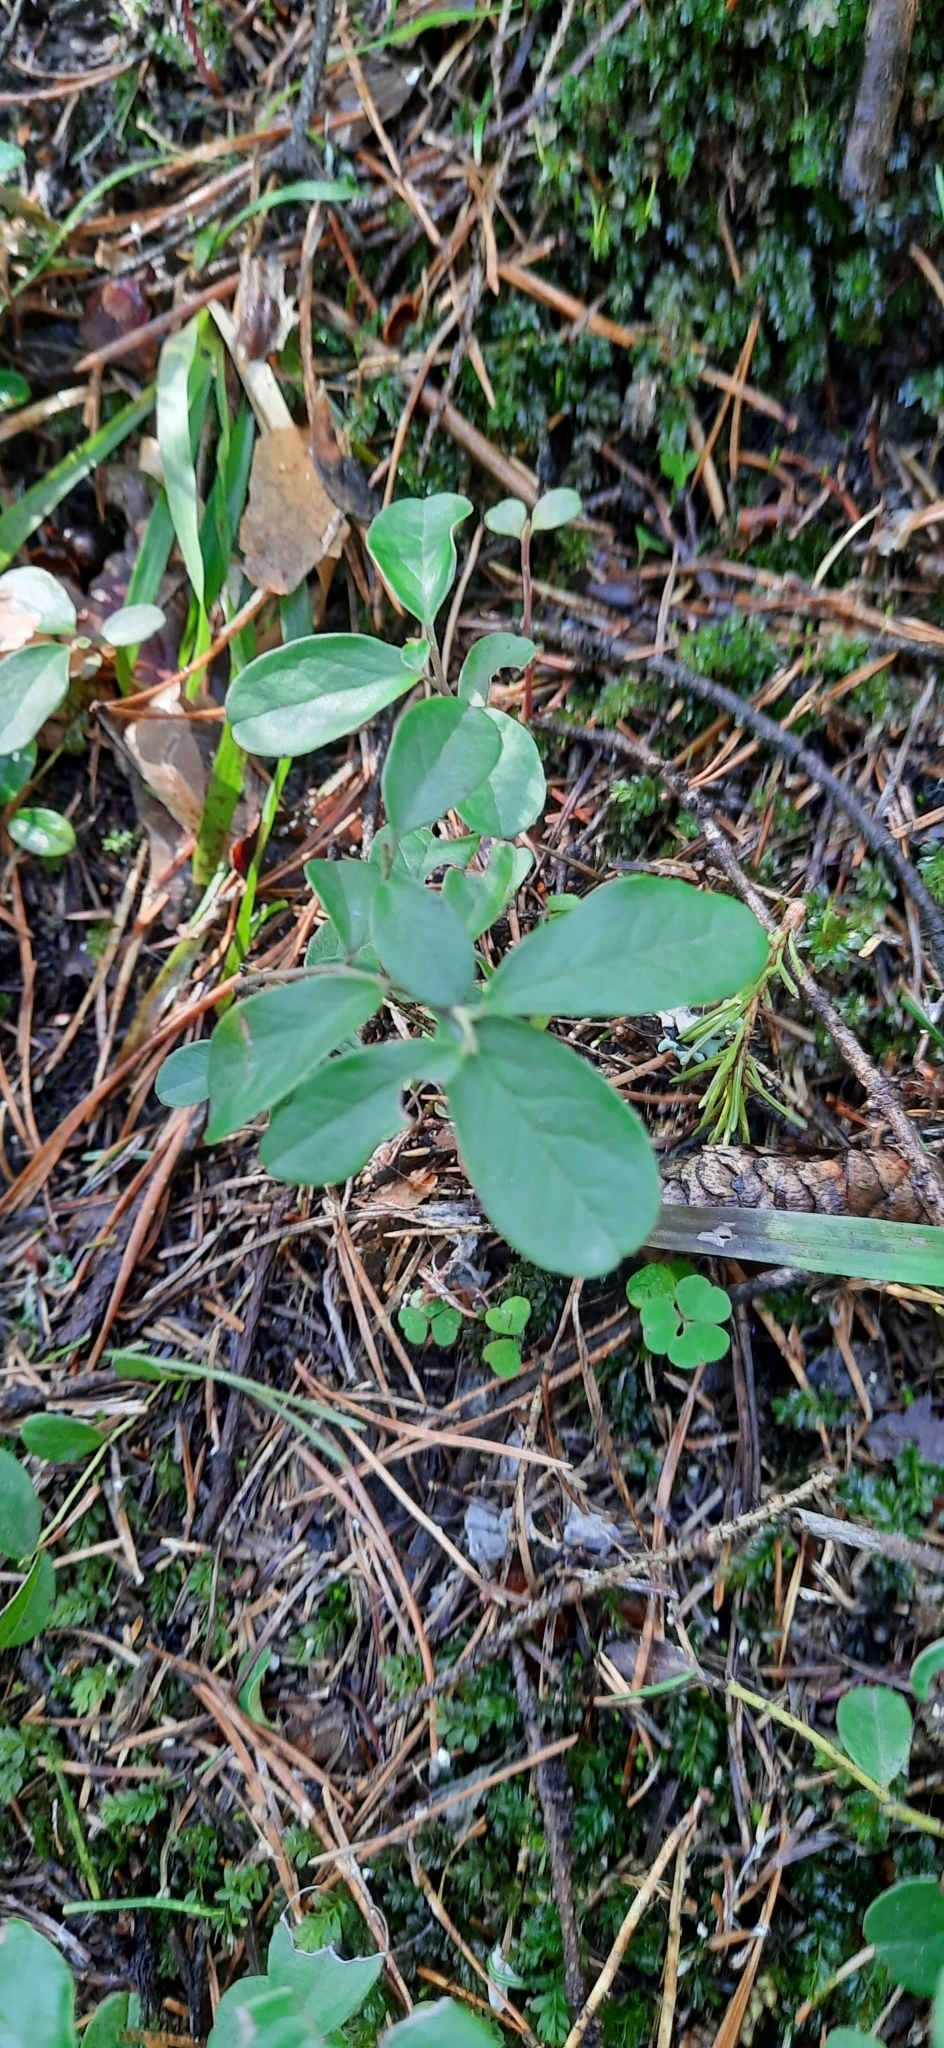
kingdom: Plantae
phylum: Tracheophyta
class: Magnoliopsida
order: Ericales
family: Ericaceae
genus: Vaccinium
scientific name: Vaccinium vitis-idaea
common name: Cowberry
